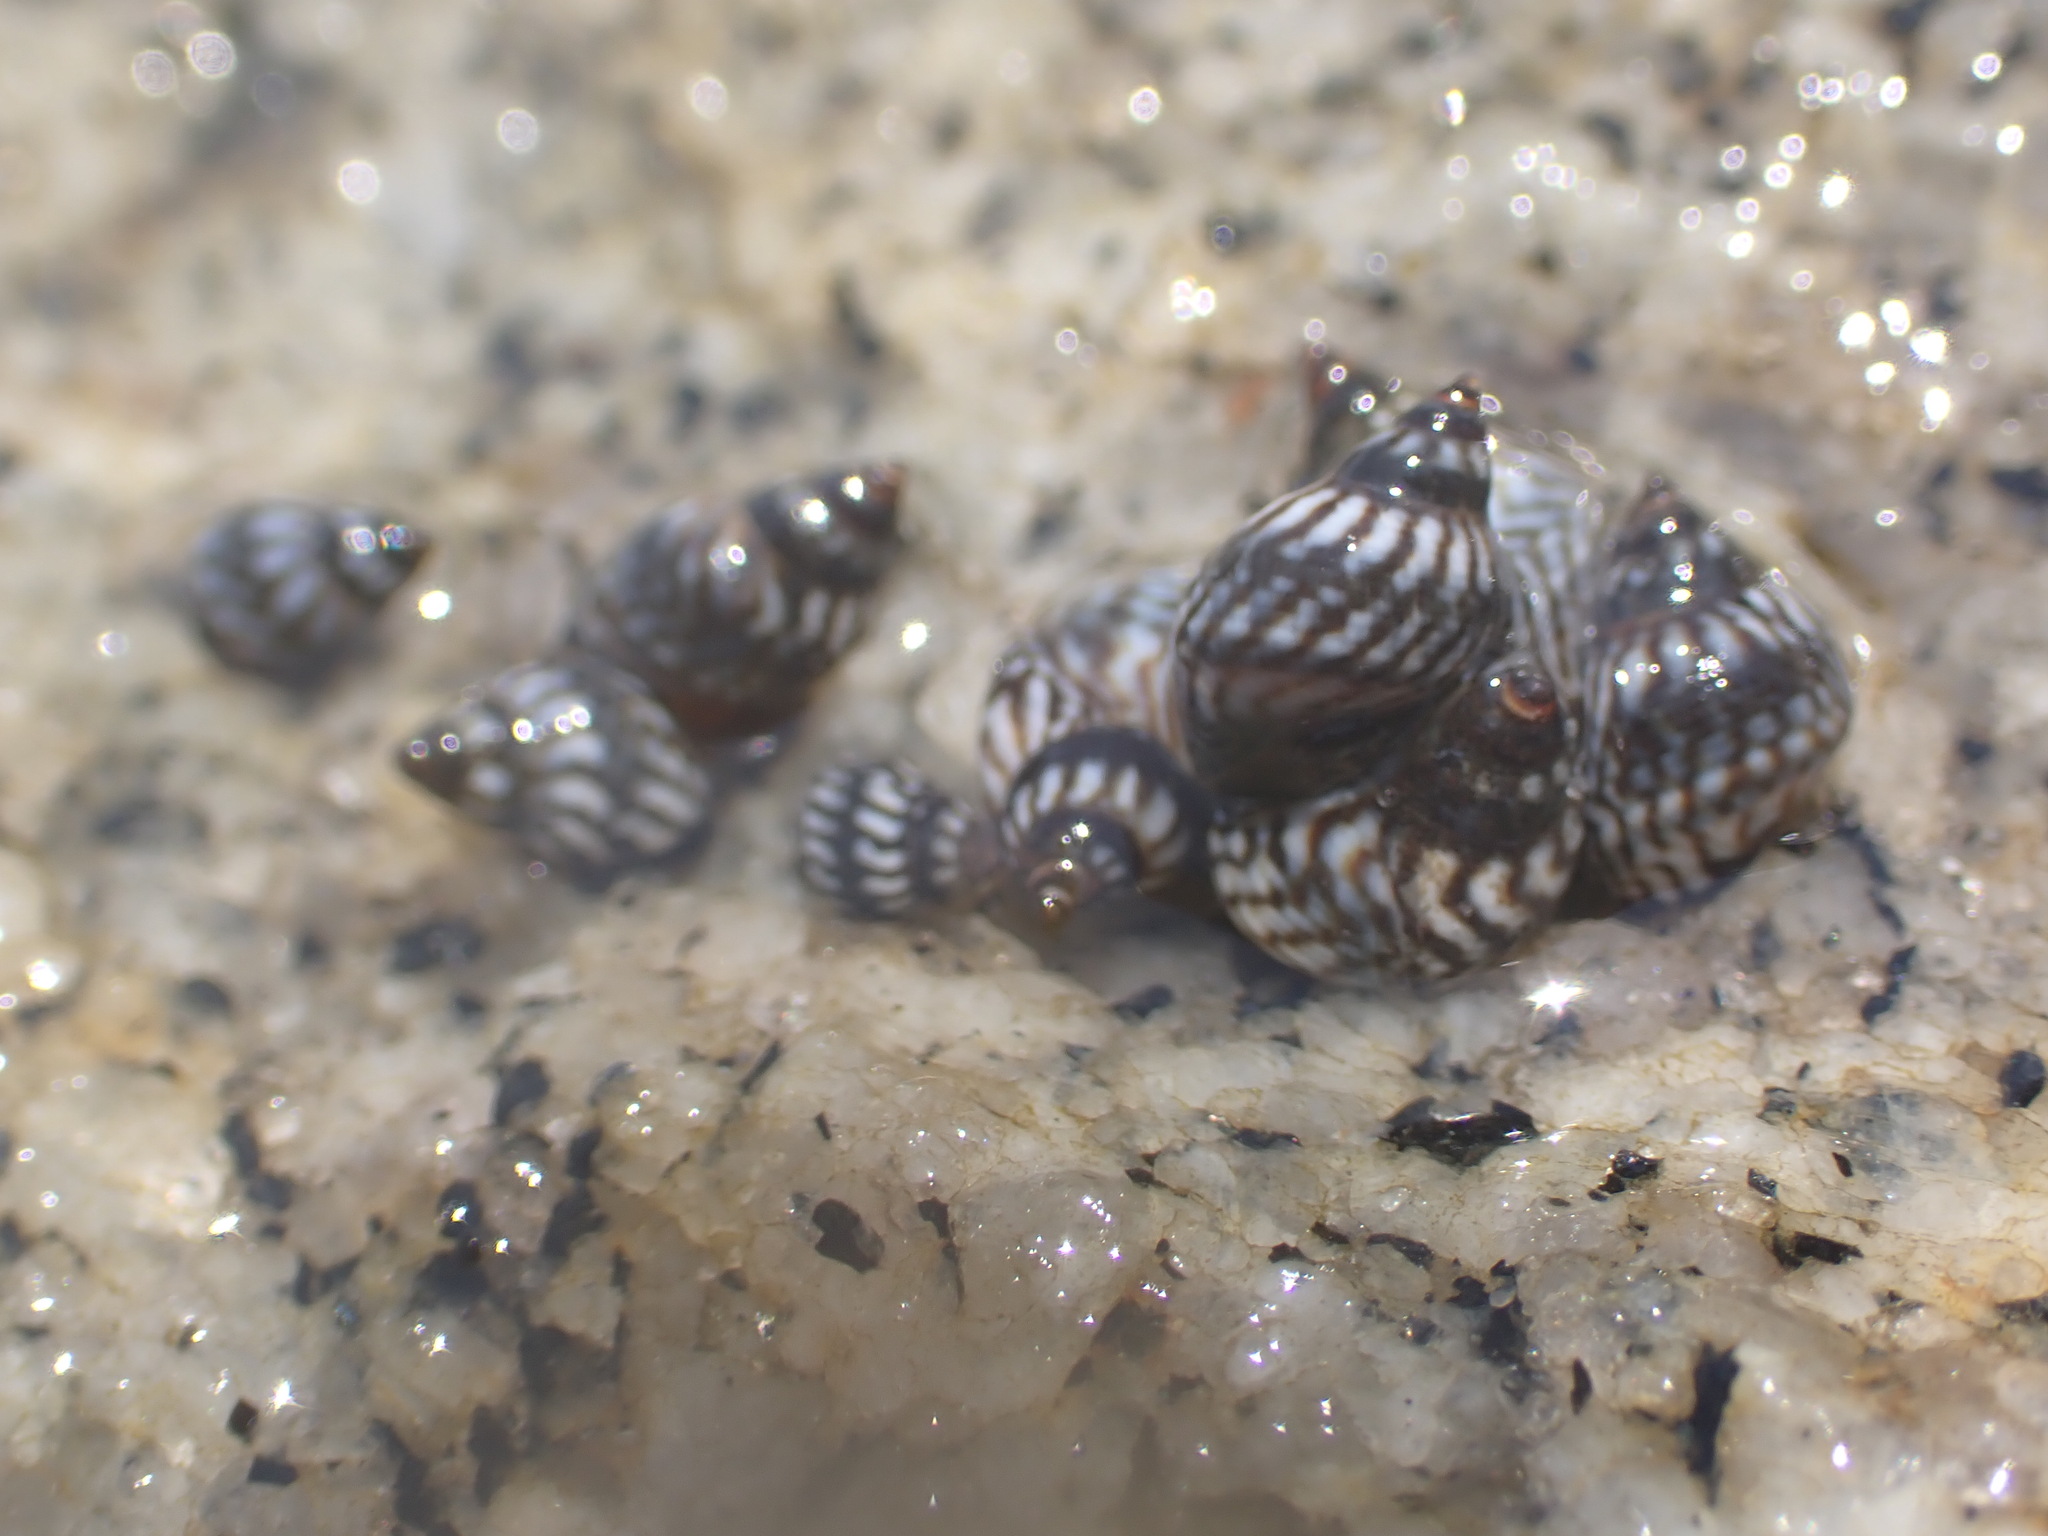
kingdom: Animalia
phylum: Mollusca
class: Gastropoda
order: Littorinimorpha
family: Littorinidae
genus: Echinolittorina
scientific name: Echinolittorina placida
